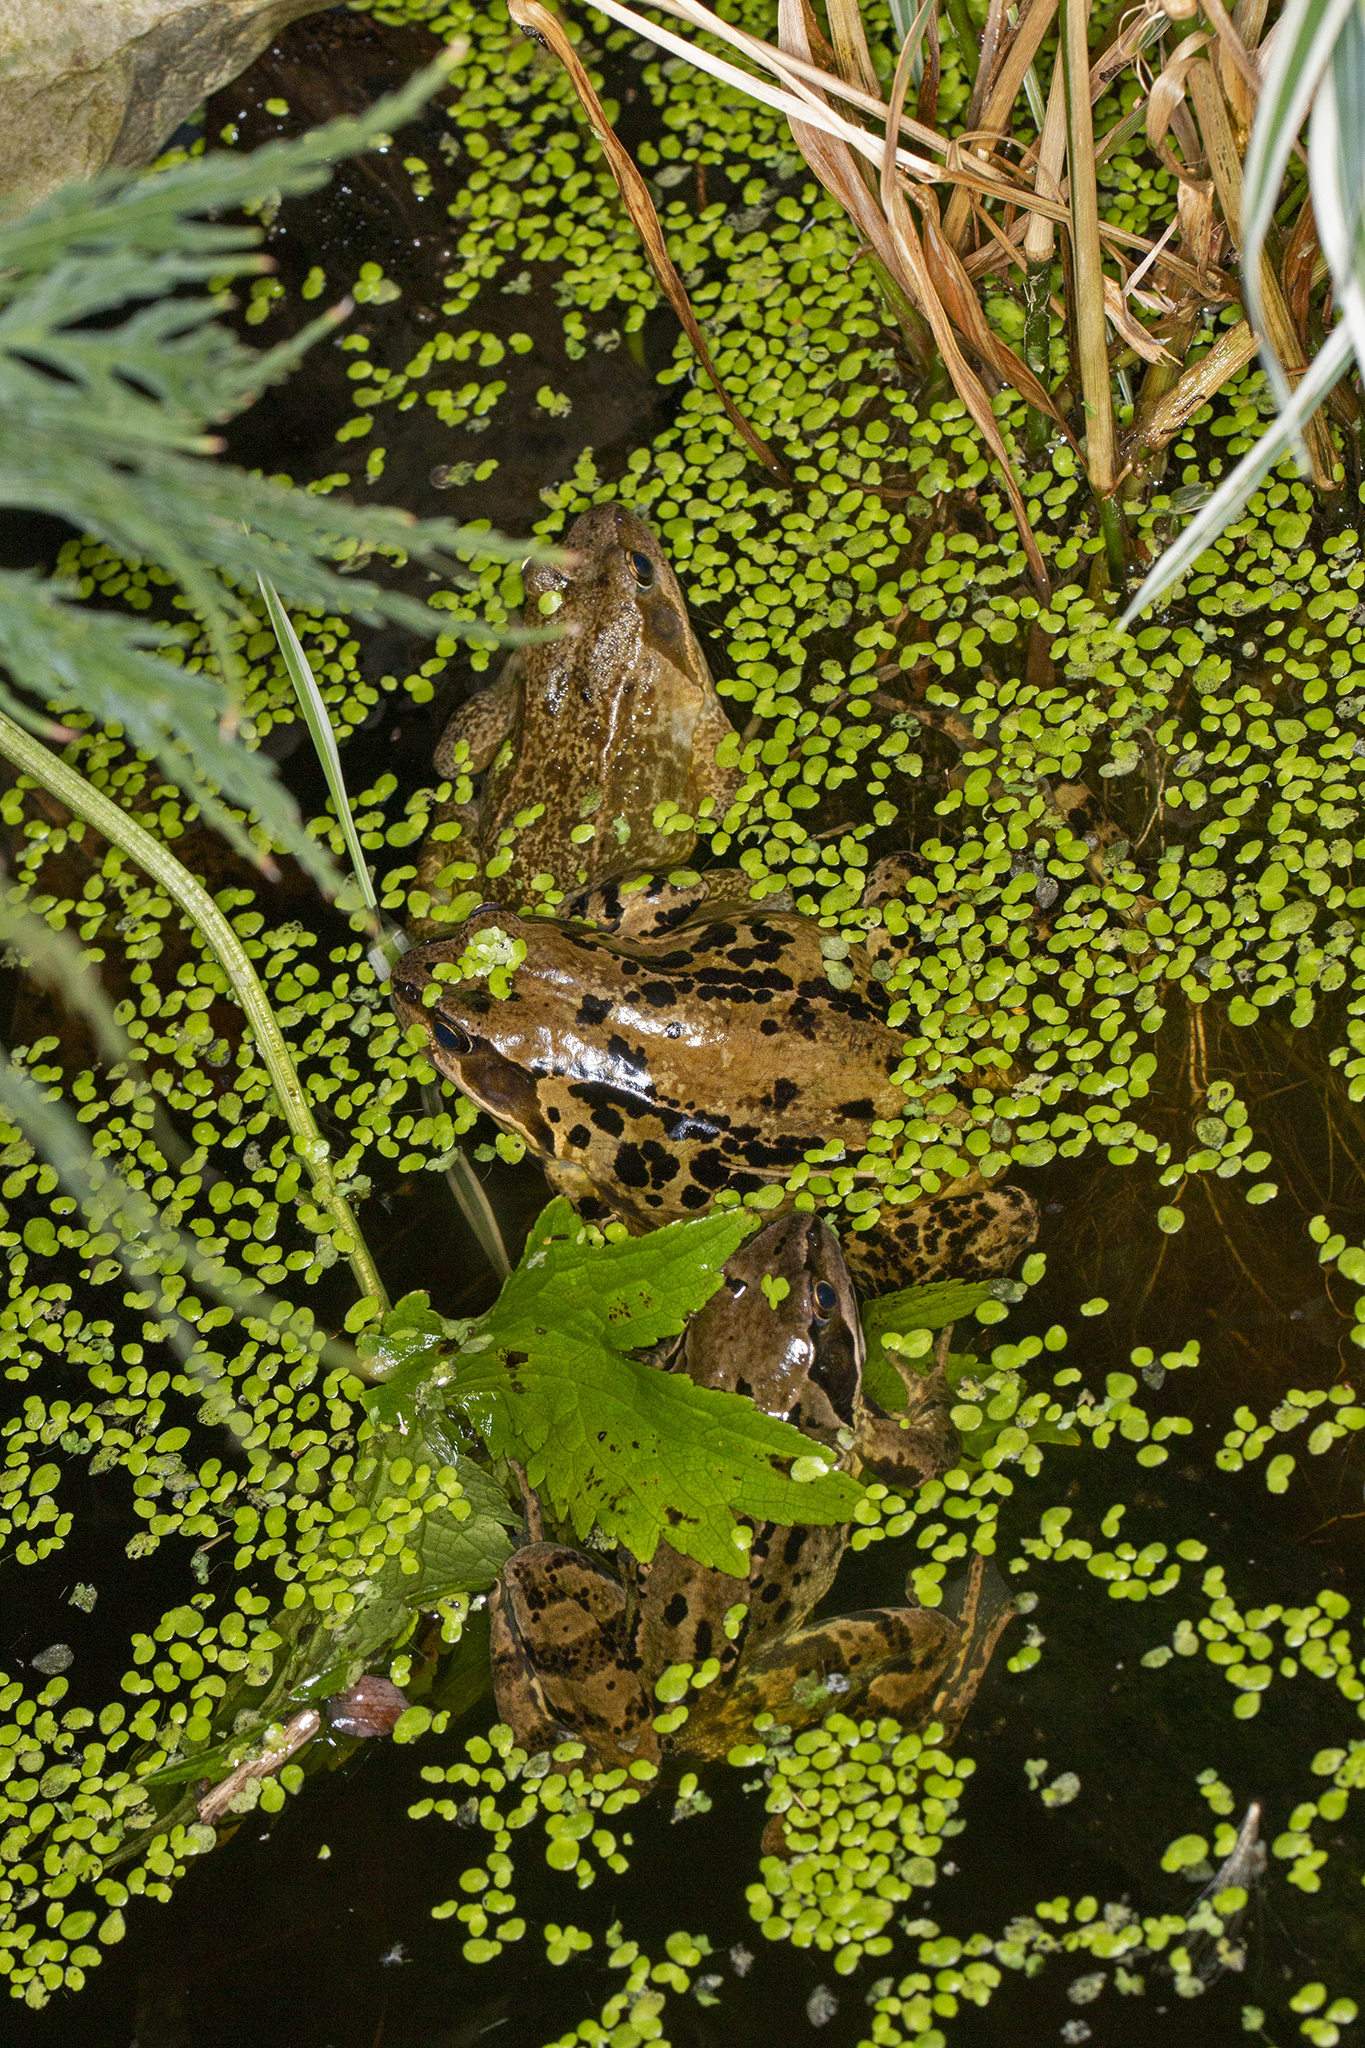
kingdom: Animalia
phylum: Chordata
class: Amphibia
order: Anura
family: Ranidae
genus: Rana
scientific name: Rana temporaria
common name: Common frog
